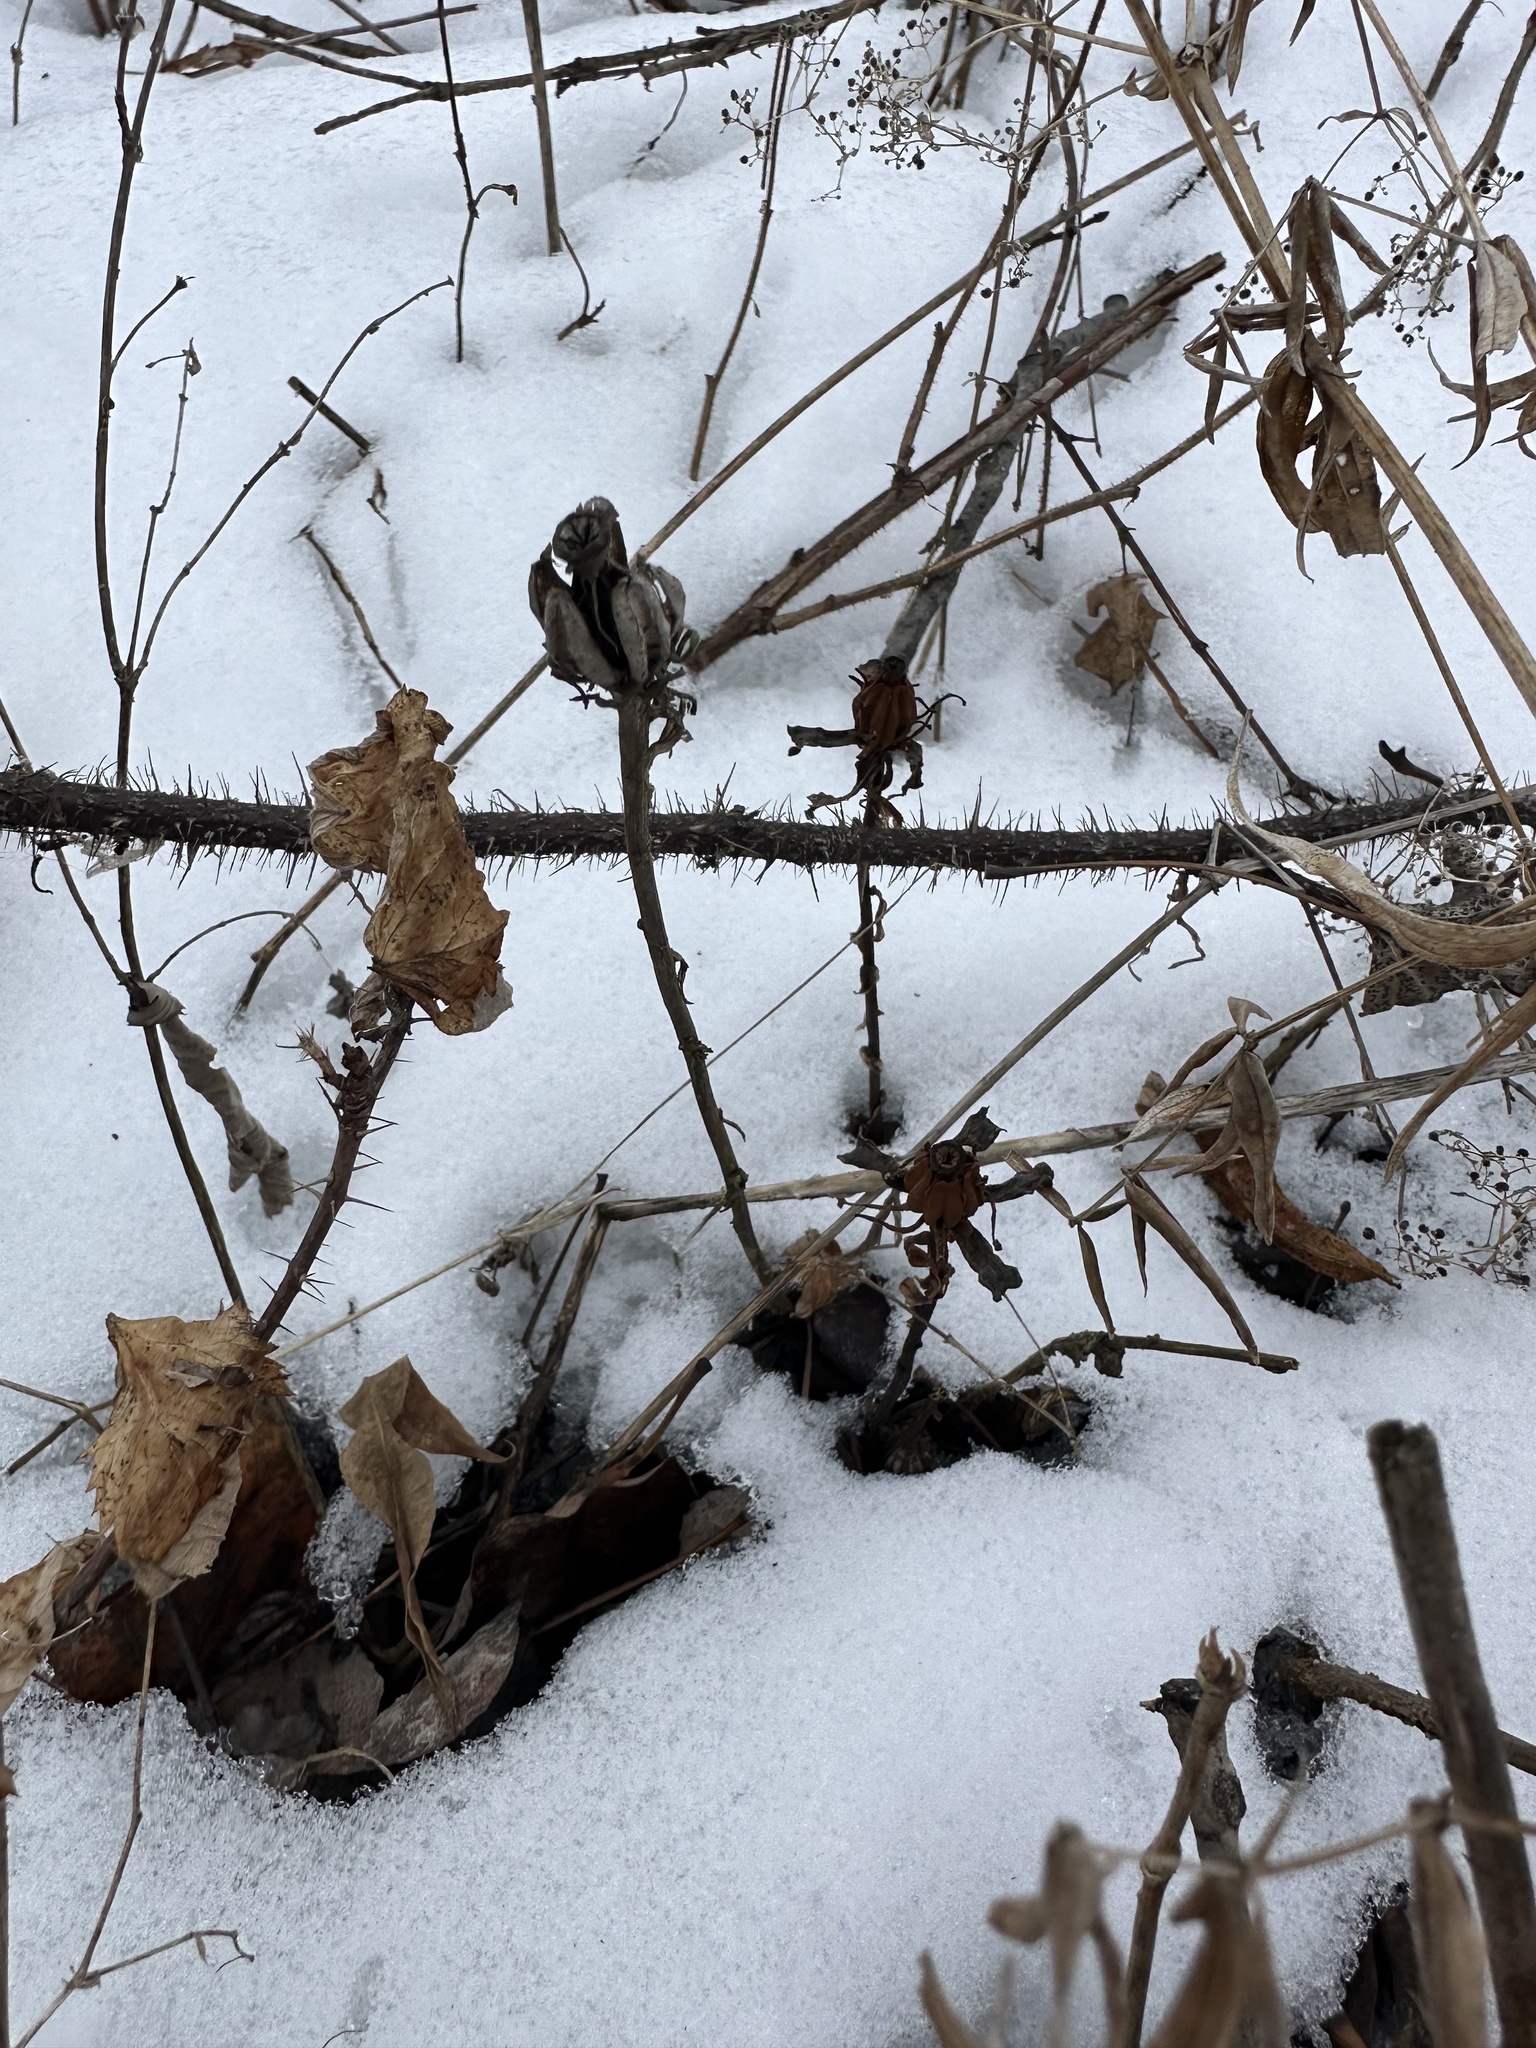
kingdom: Plantae
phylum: Tracheophyta
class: Magnoliopsida
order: Ericales
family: Ericaceae
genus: Monotropa
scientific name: Monotropa uniflora
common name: Convulsion root
